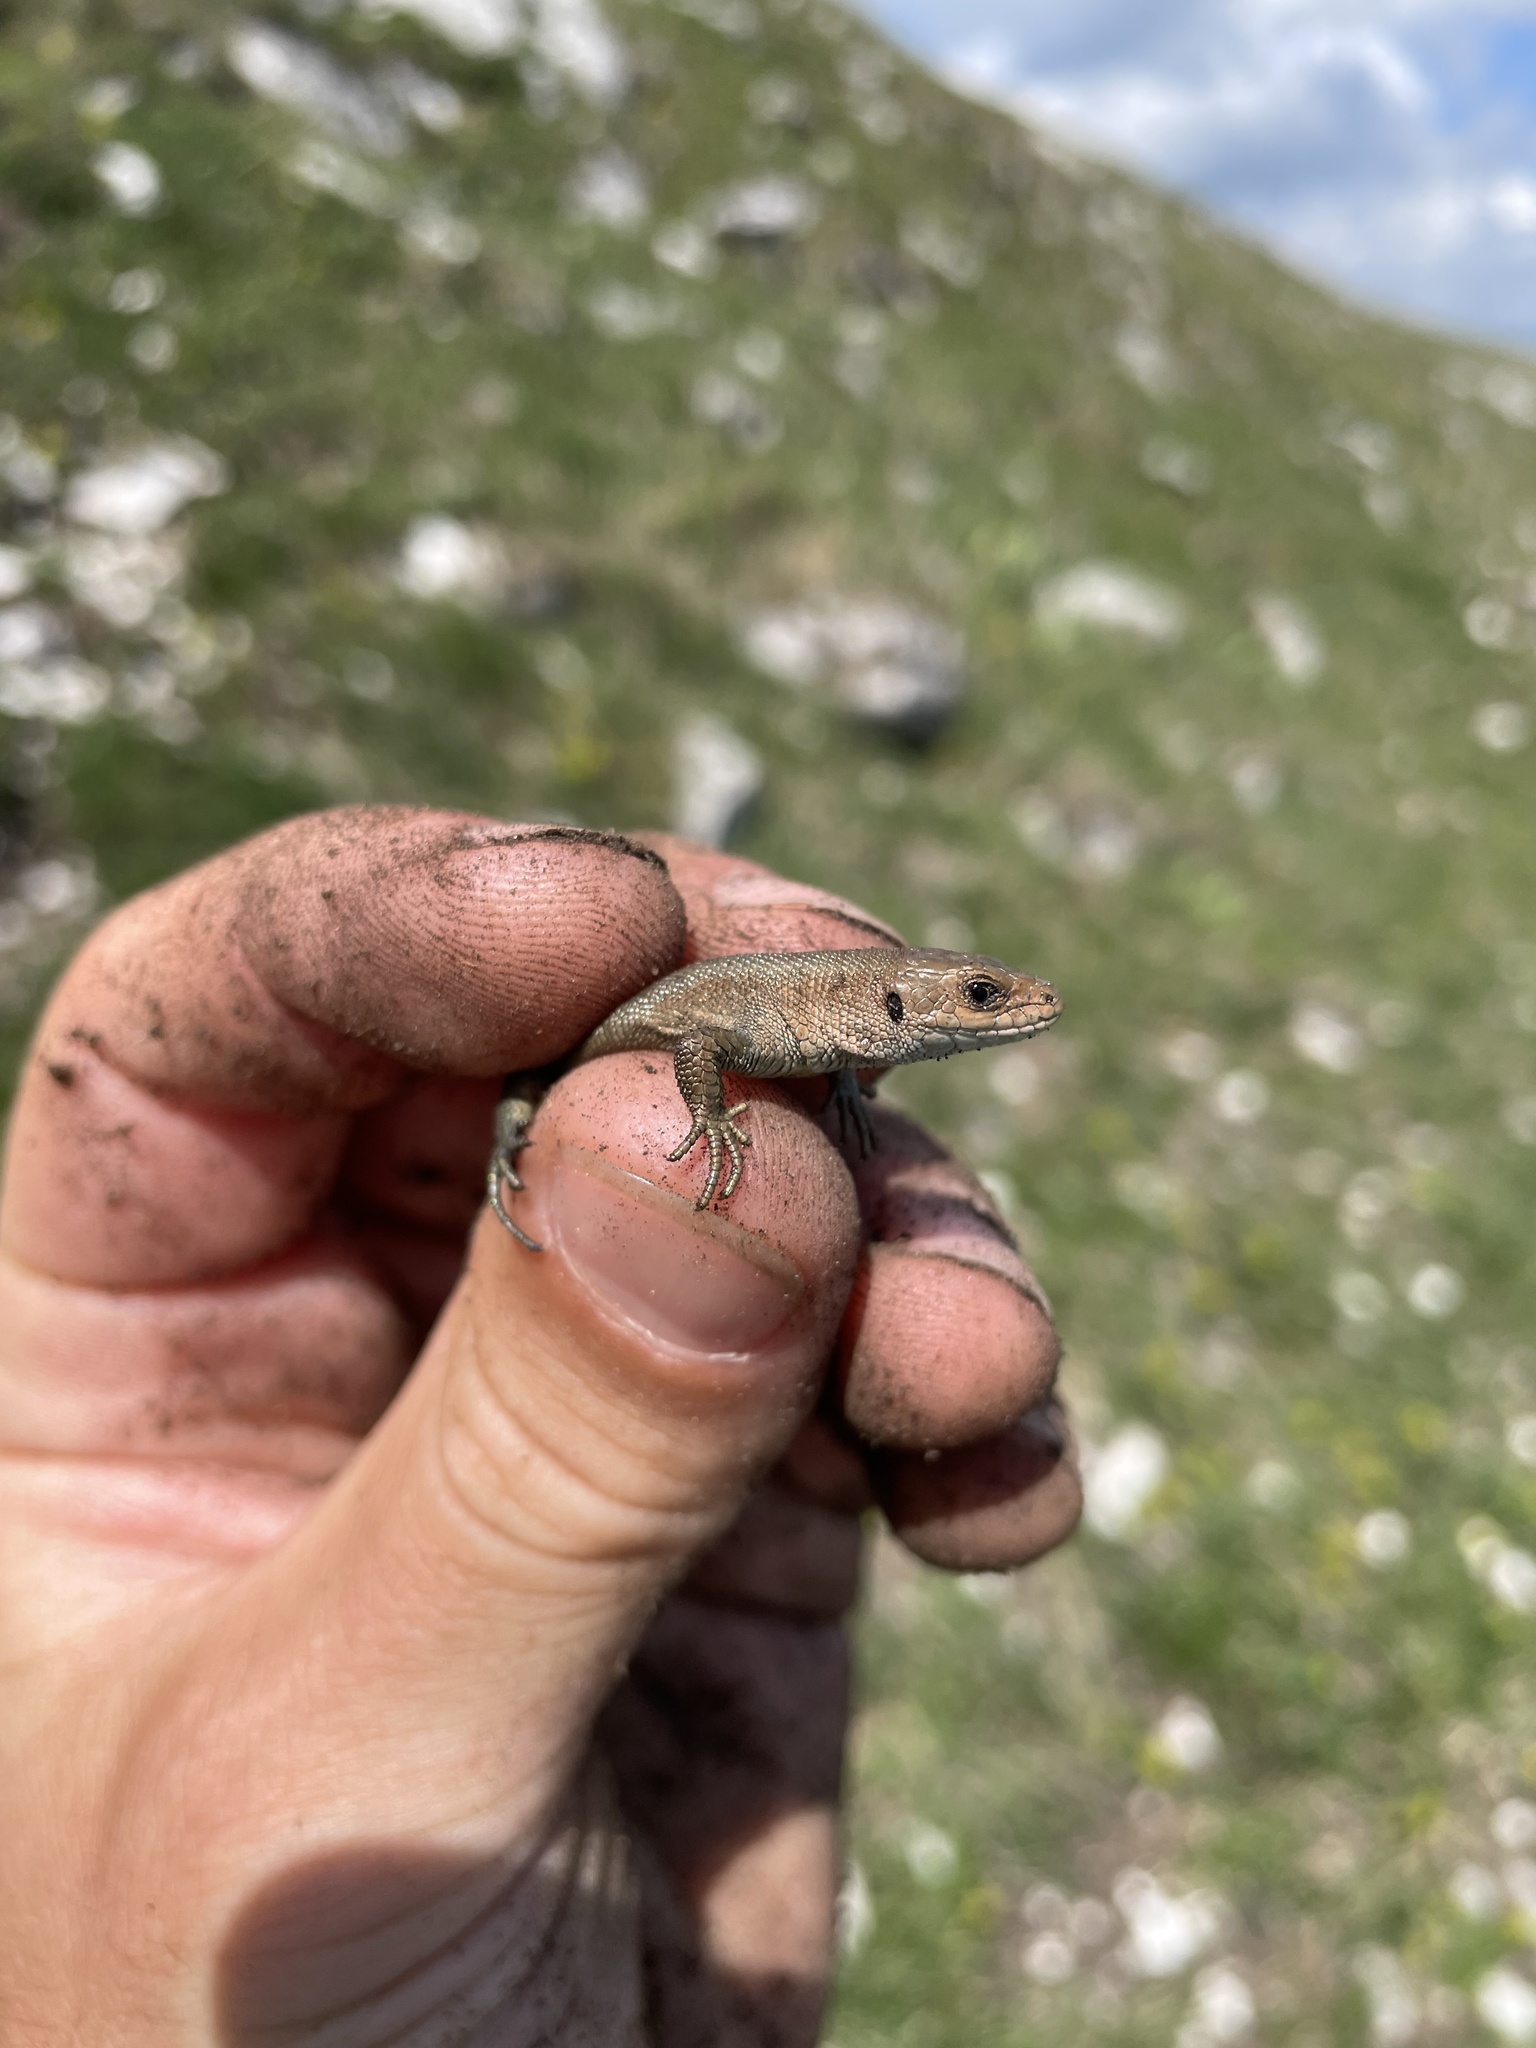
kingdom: Animalia
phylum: Chordata
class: Squamata
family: Lacertidae
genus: Zootoca
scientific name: Zootoca vivipara
